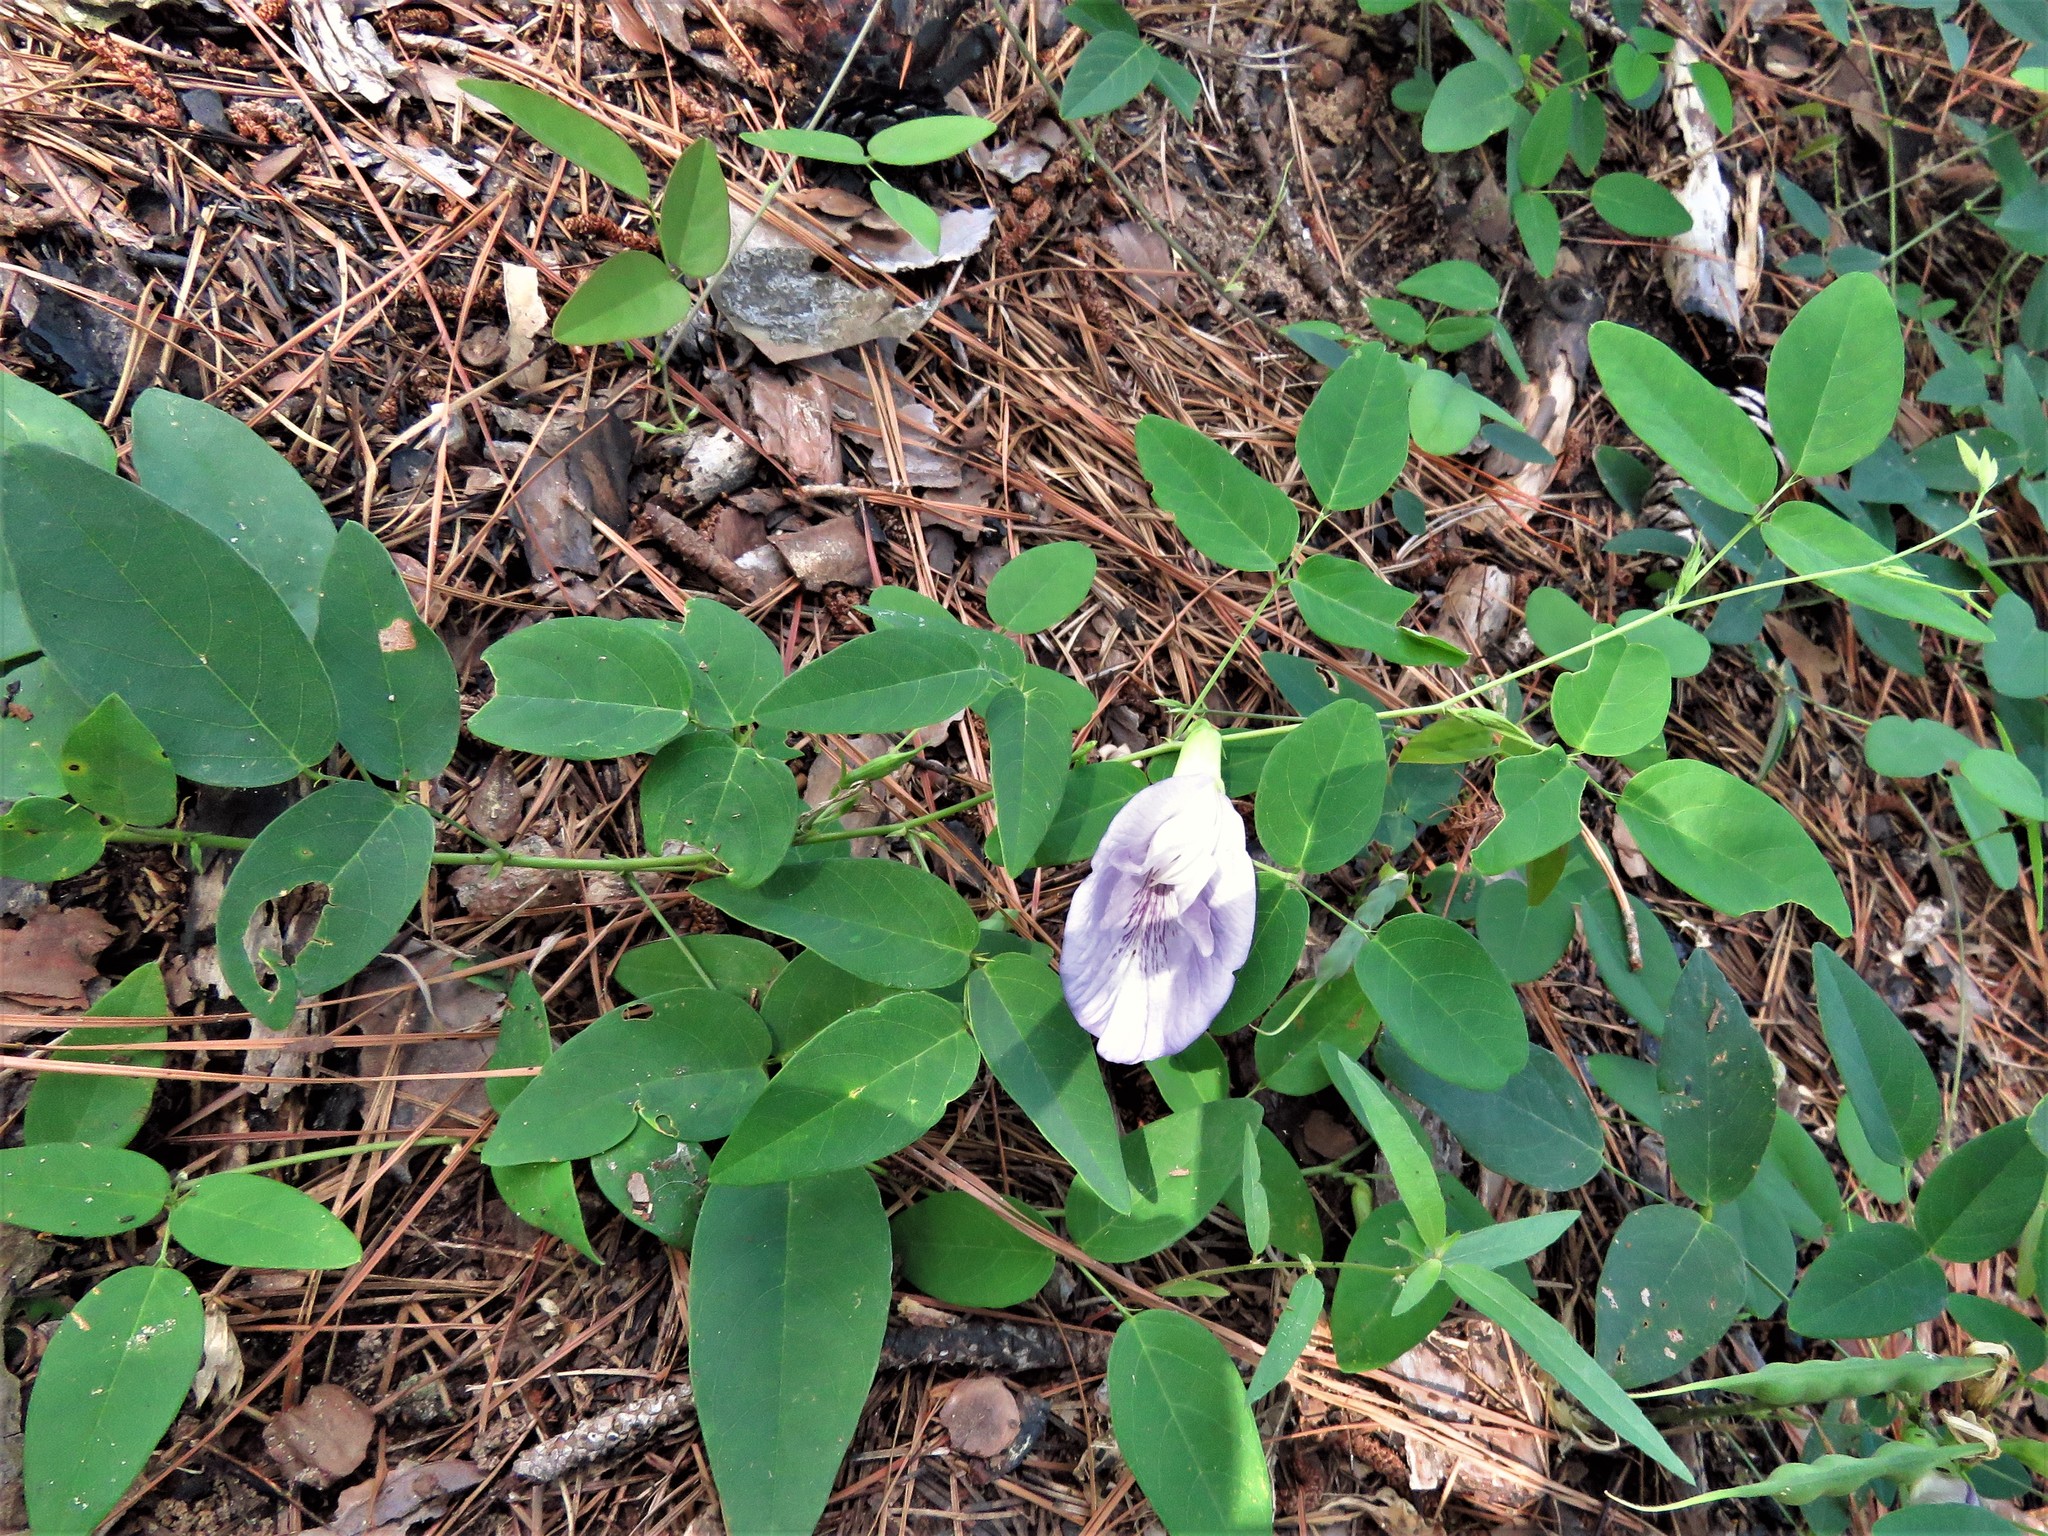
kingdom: Plantae
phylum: Tracheophyta
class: Magnoliopsida
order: Fabales
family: Fabaceae
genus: Clitoria
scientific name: Clitoria mariana
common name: Butterfly-pea
